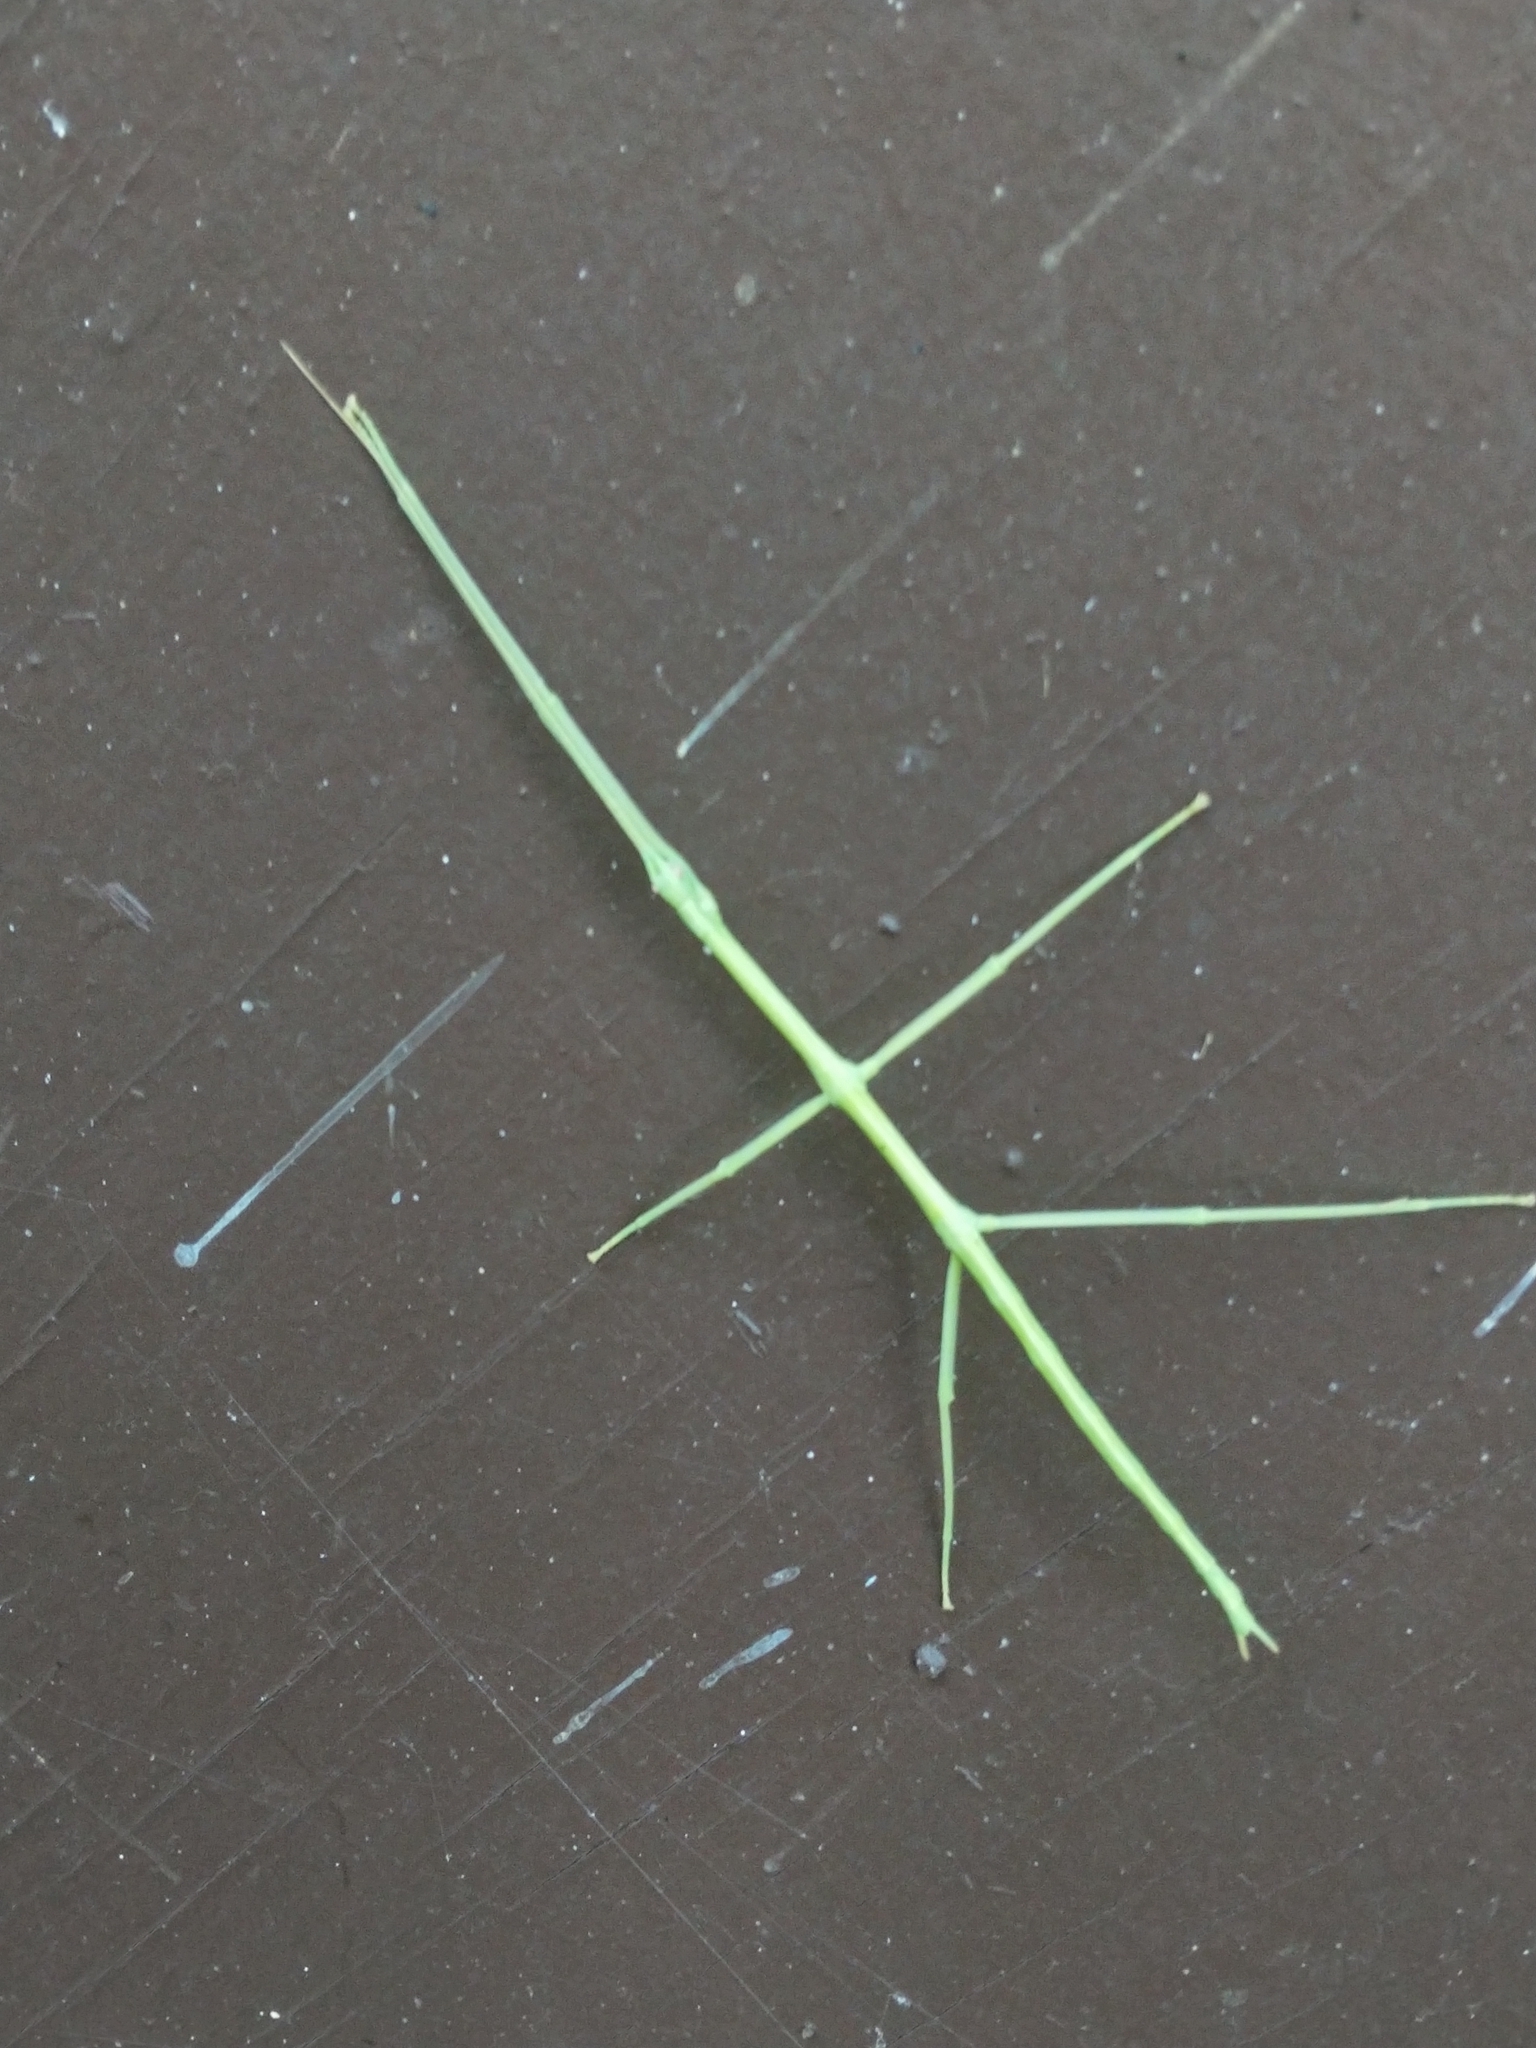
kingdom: Animalia
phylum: Arthropoda
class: Insecta
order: Phasmida
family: Diapheromeridae
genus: Diapheromera
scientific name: Diapheromera femorata
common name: Common american walkingstick
